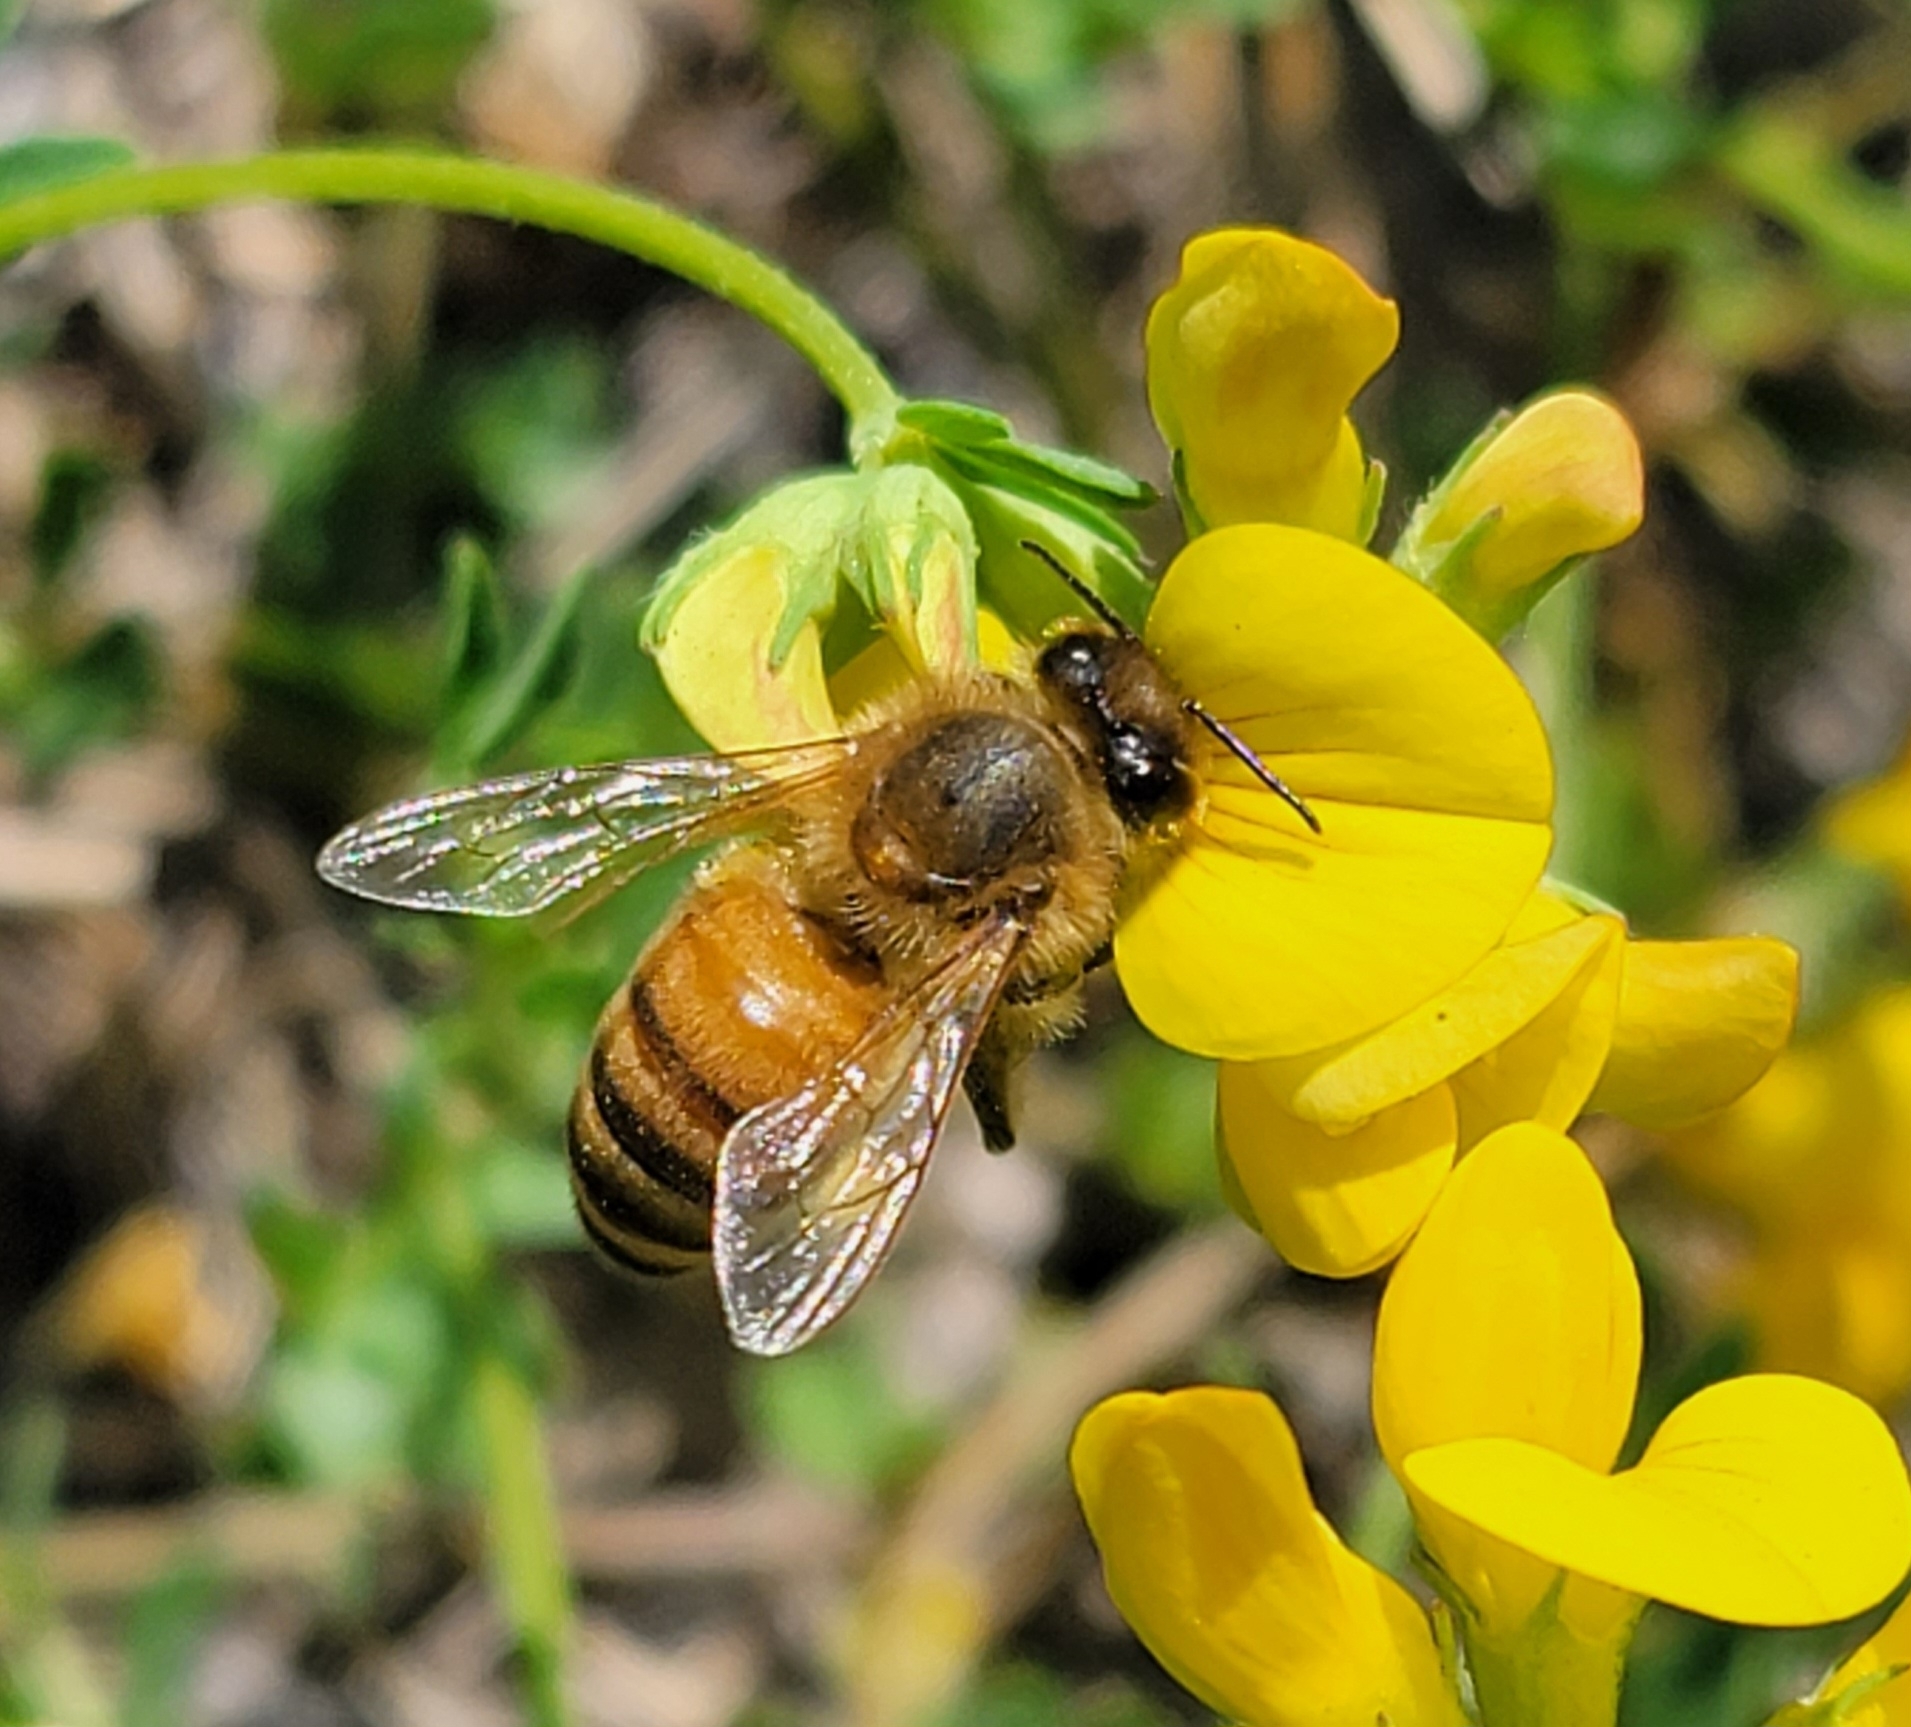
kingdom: Animalia
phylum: Arthropoda
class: Insecta
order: Hymenoptera
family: Apidae
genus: Apis
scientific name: Apis mellifera
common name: Honey bee
